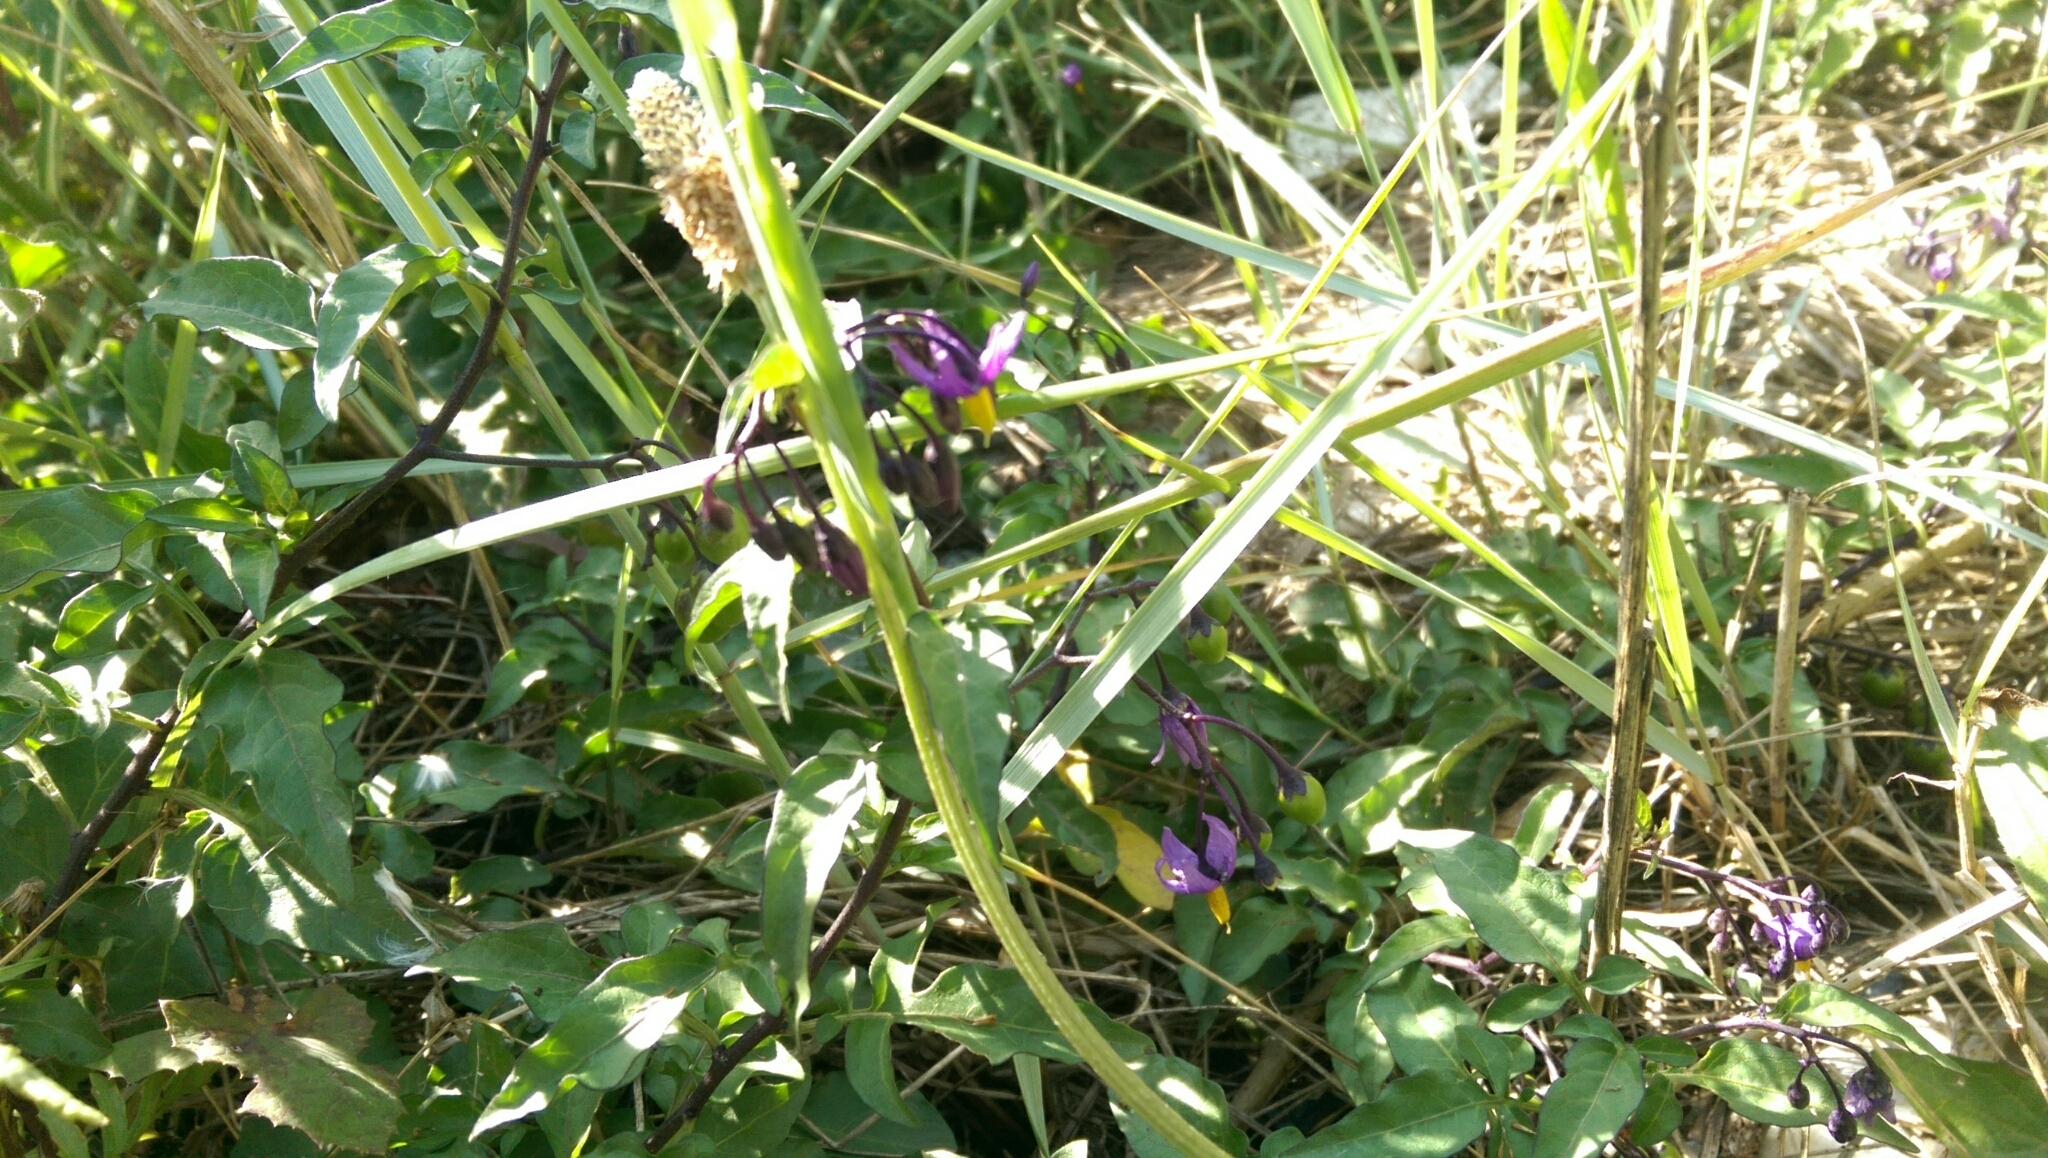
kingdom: Plantae
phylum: Tracheophyta
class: Magnoliopsida
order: Solanales
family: Solanaceae
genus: Solanum
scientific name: Solanum dulcamara
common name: Climbing nightshade
